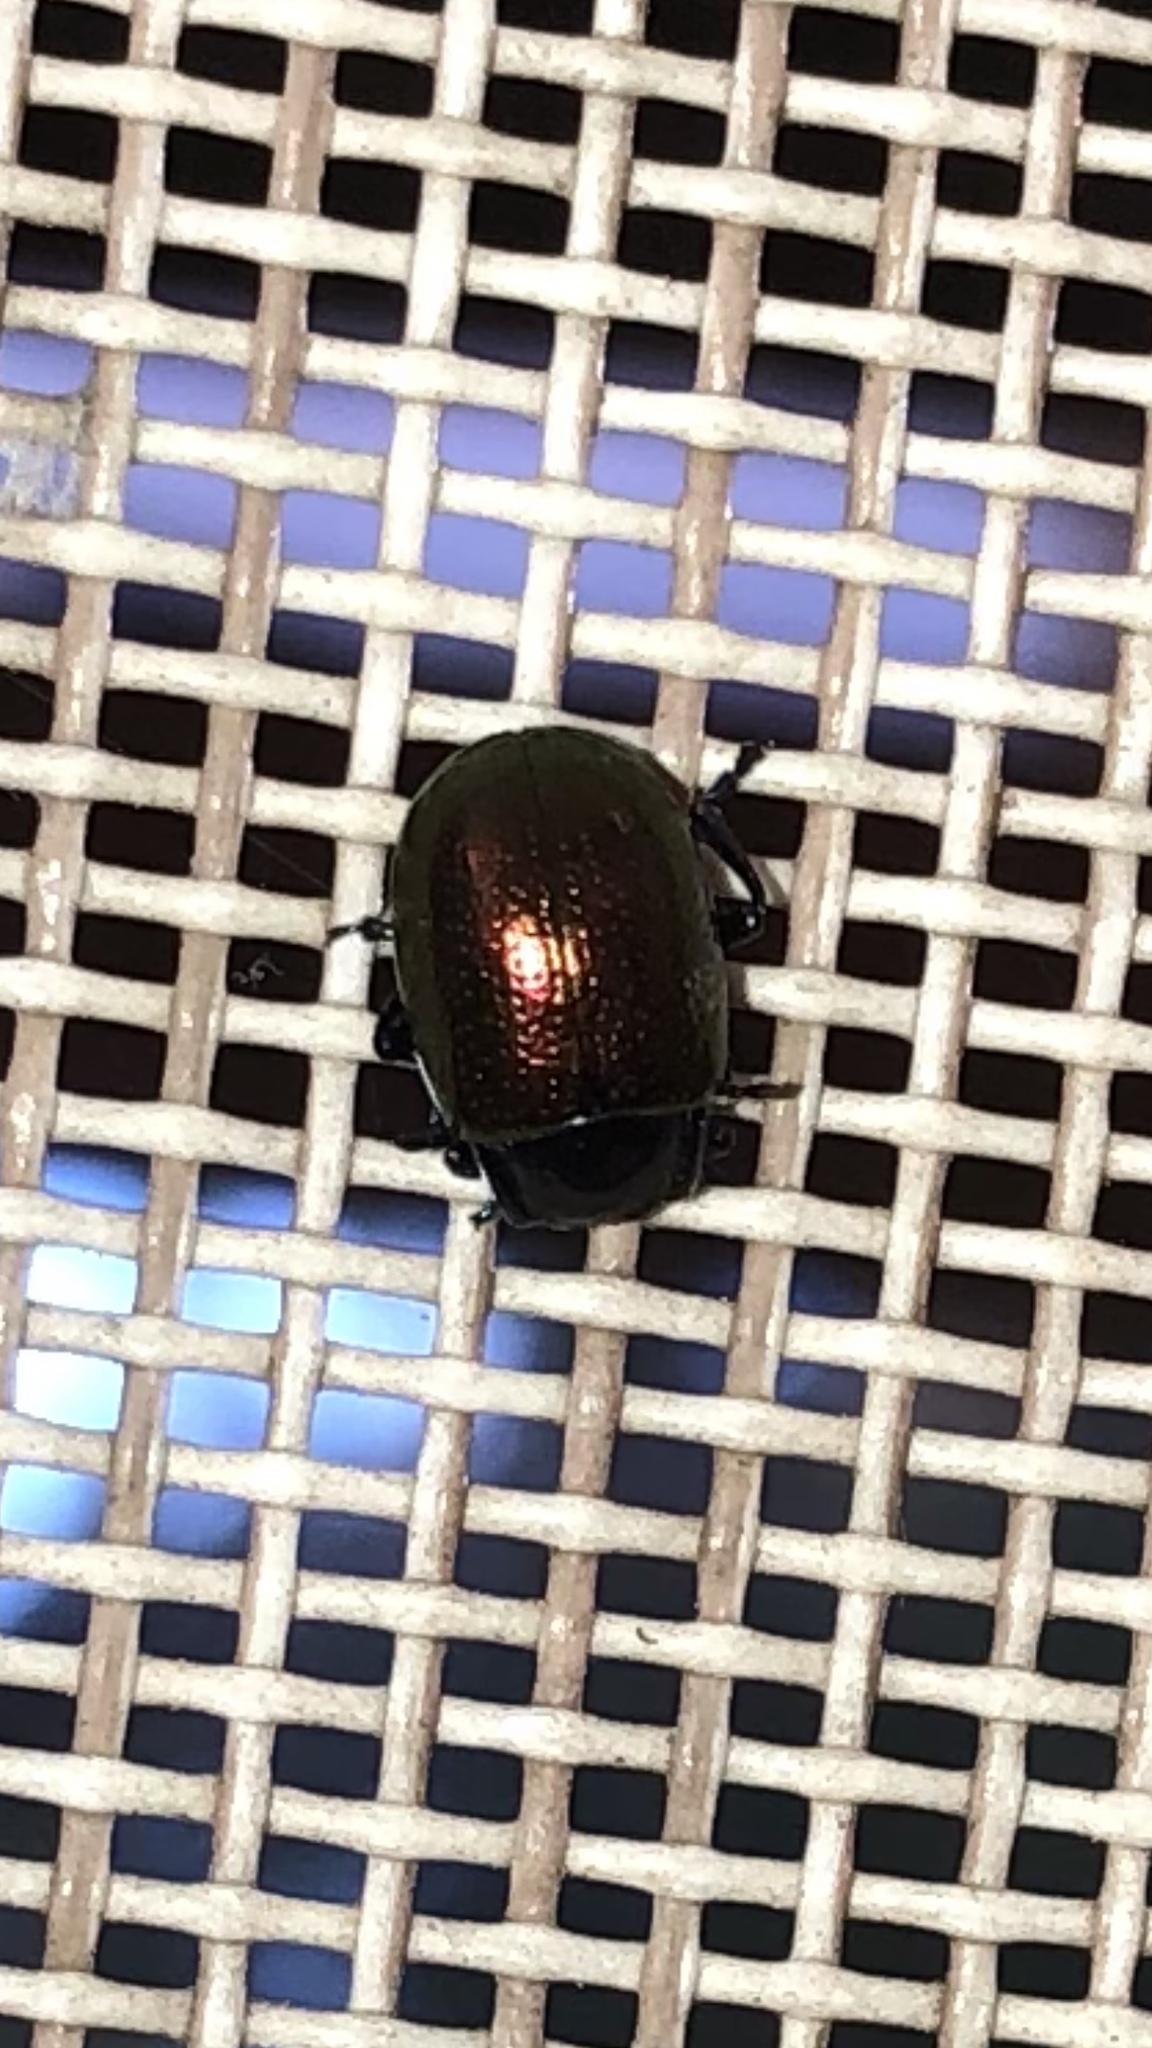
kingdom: Animalia
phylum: Arthropoda
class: Insecta
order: Coleoptera
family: Chrysomelidae
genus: Chrysolina
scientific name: Chrysolina auripennis
